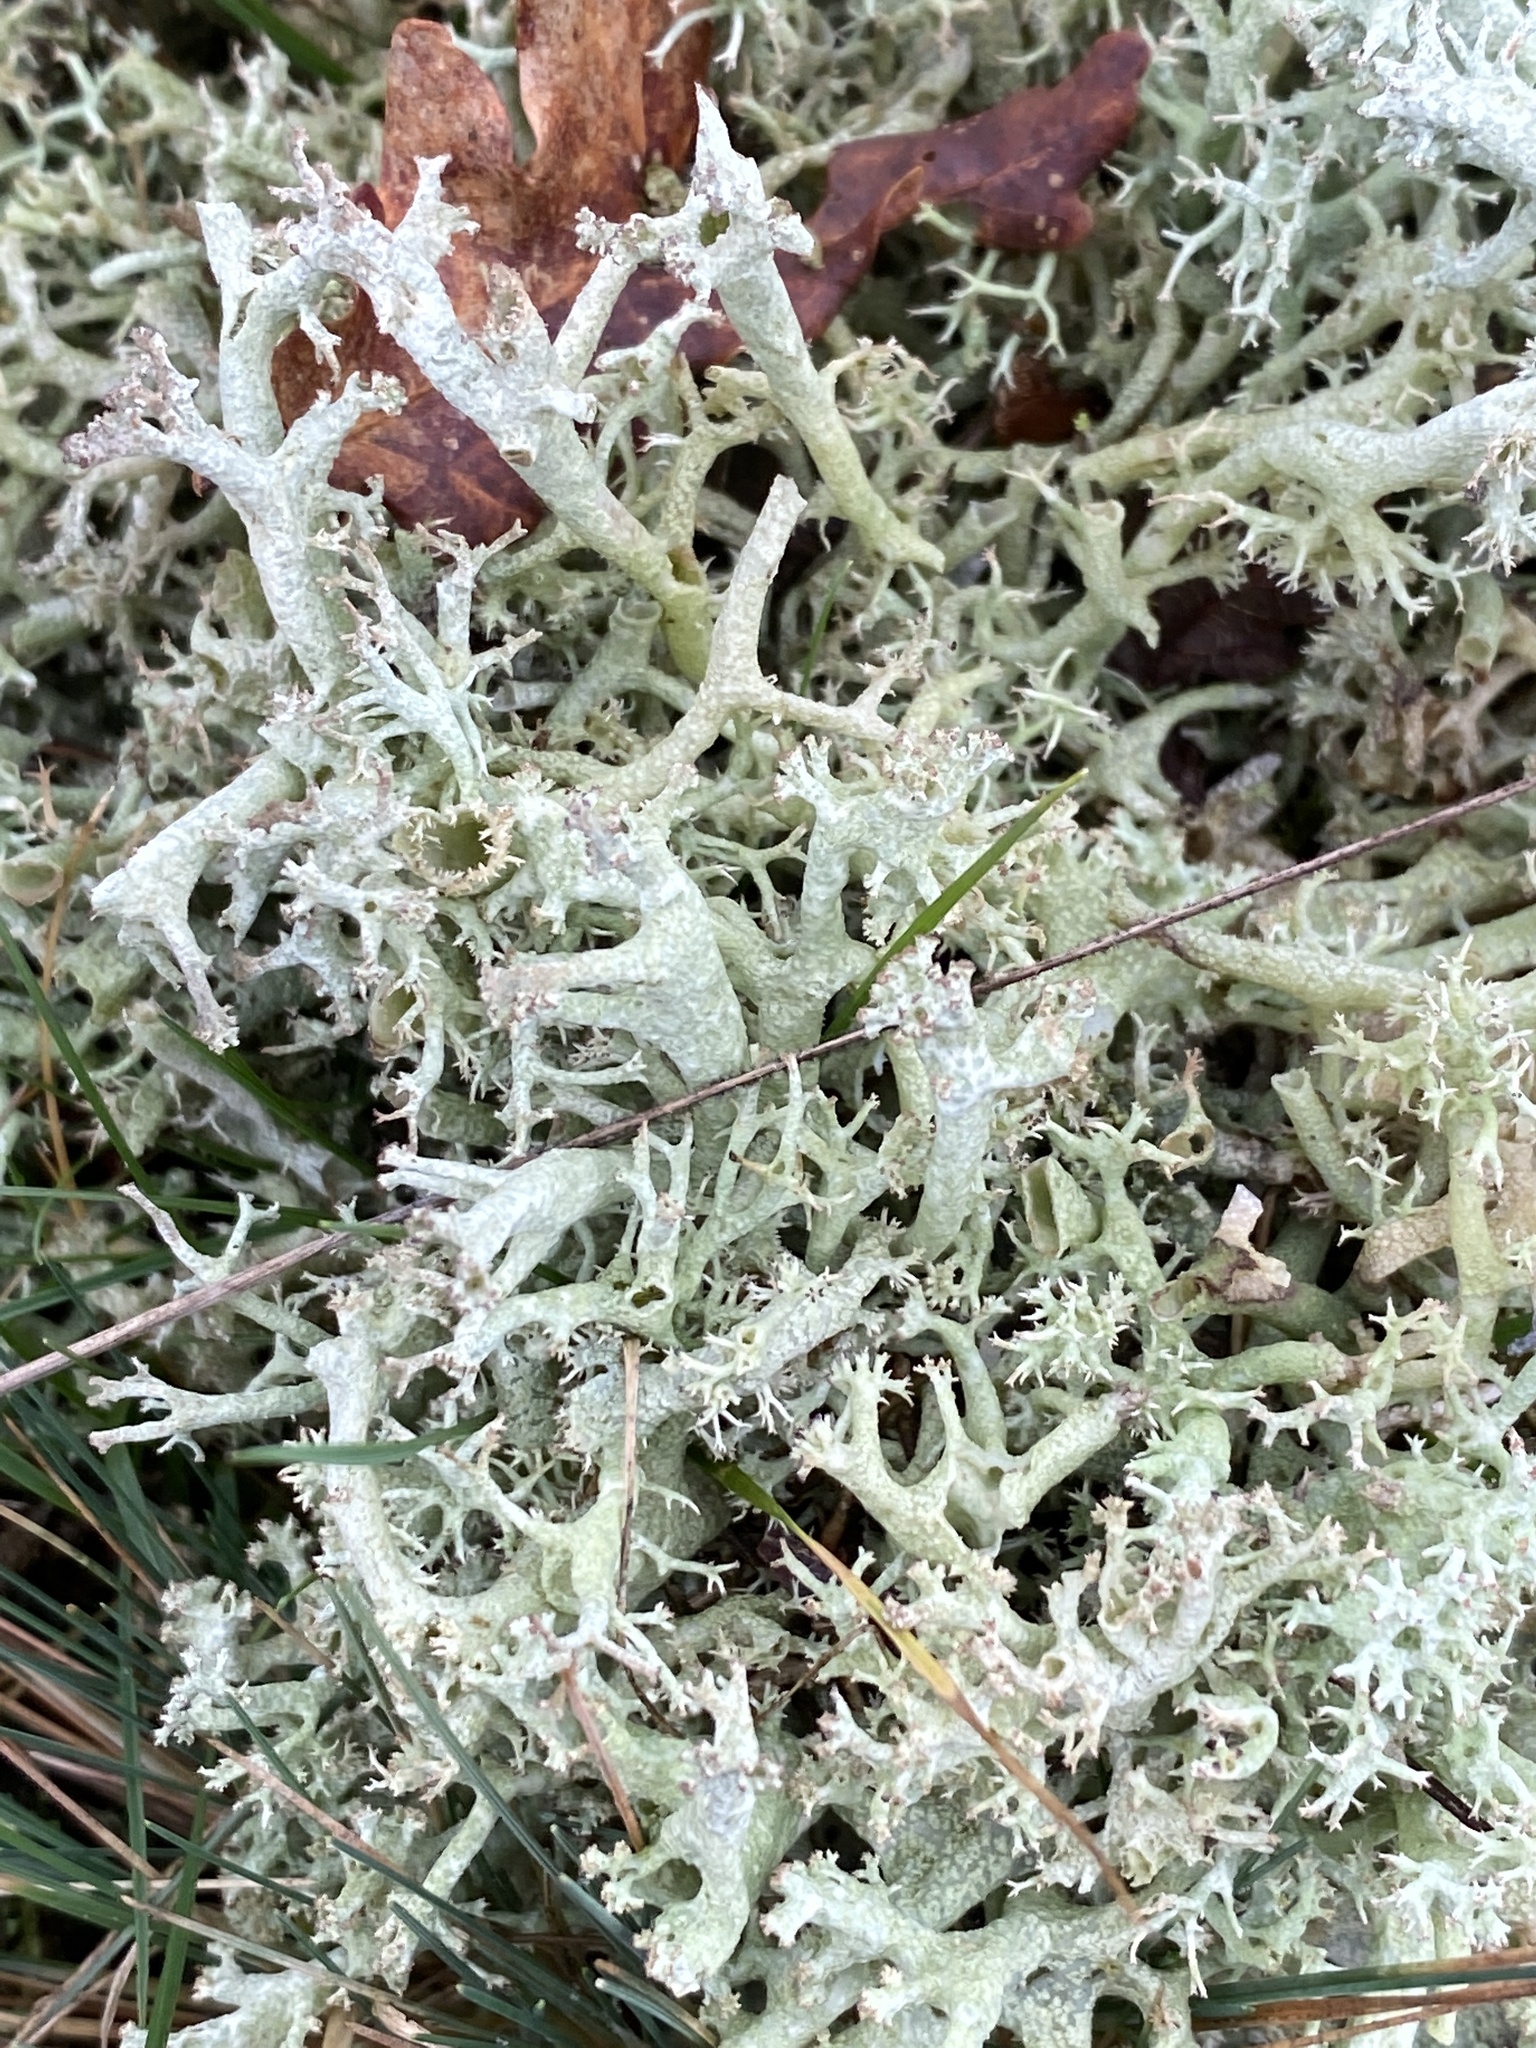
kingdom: Fungi
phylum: Ascomycota
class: Lecanoromycetes
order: Lecanorales
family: Cladoniaceae
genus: Cladonia
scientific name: Cladonia portentosa
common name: Reindeer lichen
